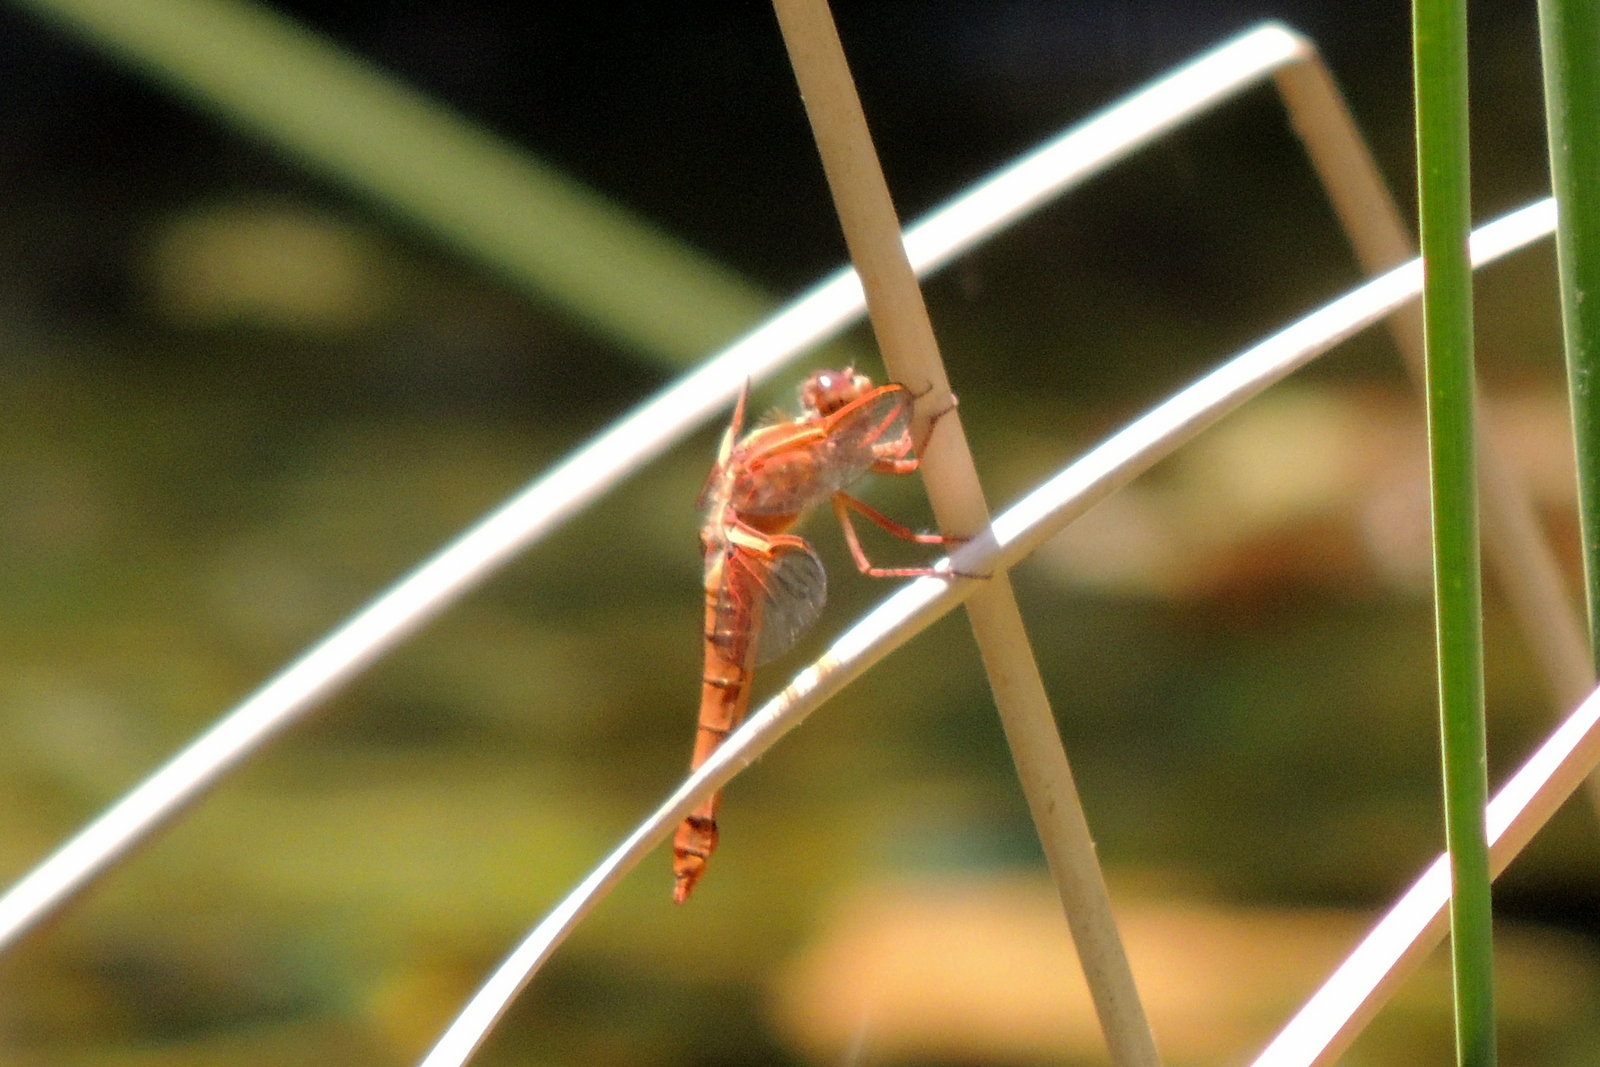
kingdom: Animalia
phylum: Arthropoda
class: Insecta
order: Odonata
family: Libellulidae
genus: Libellula
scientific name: Libellula saturata
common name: Flame skimmer
